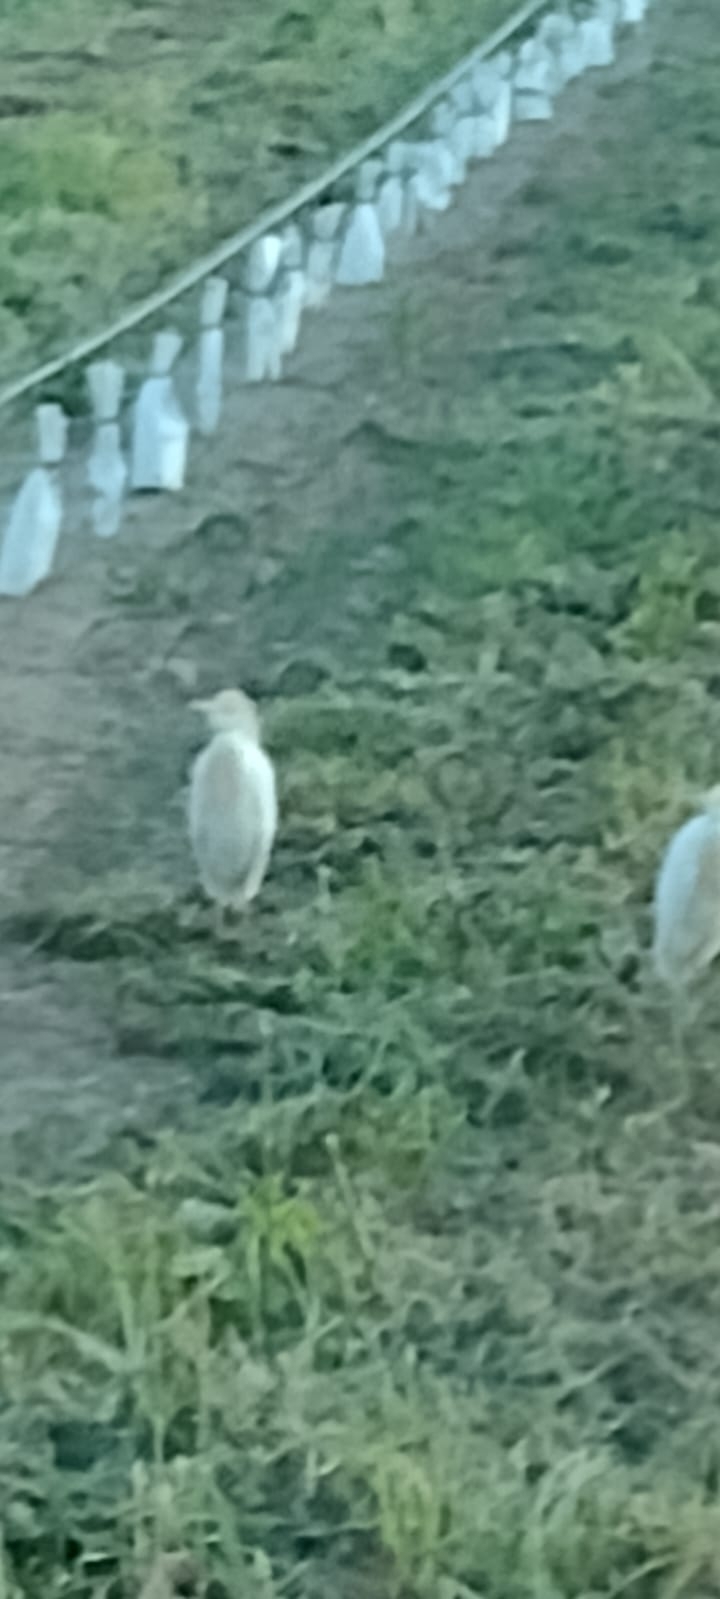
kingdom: Animalia
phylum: Chordata
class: Aves
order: Pelecaniformes
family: Ardeidae
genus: Bubulcus
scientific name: Bubulcus ibis
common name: Cattle egret
